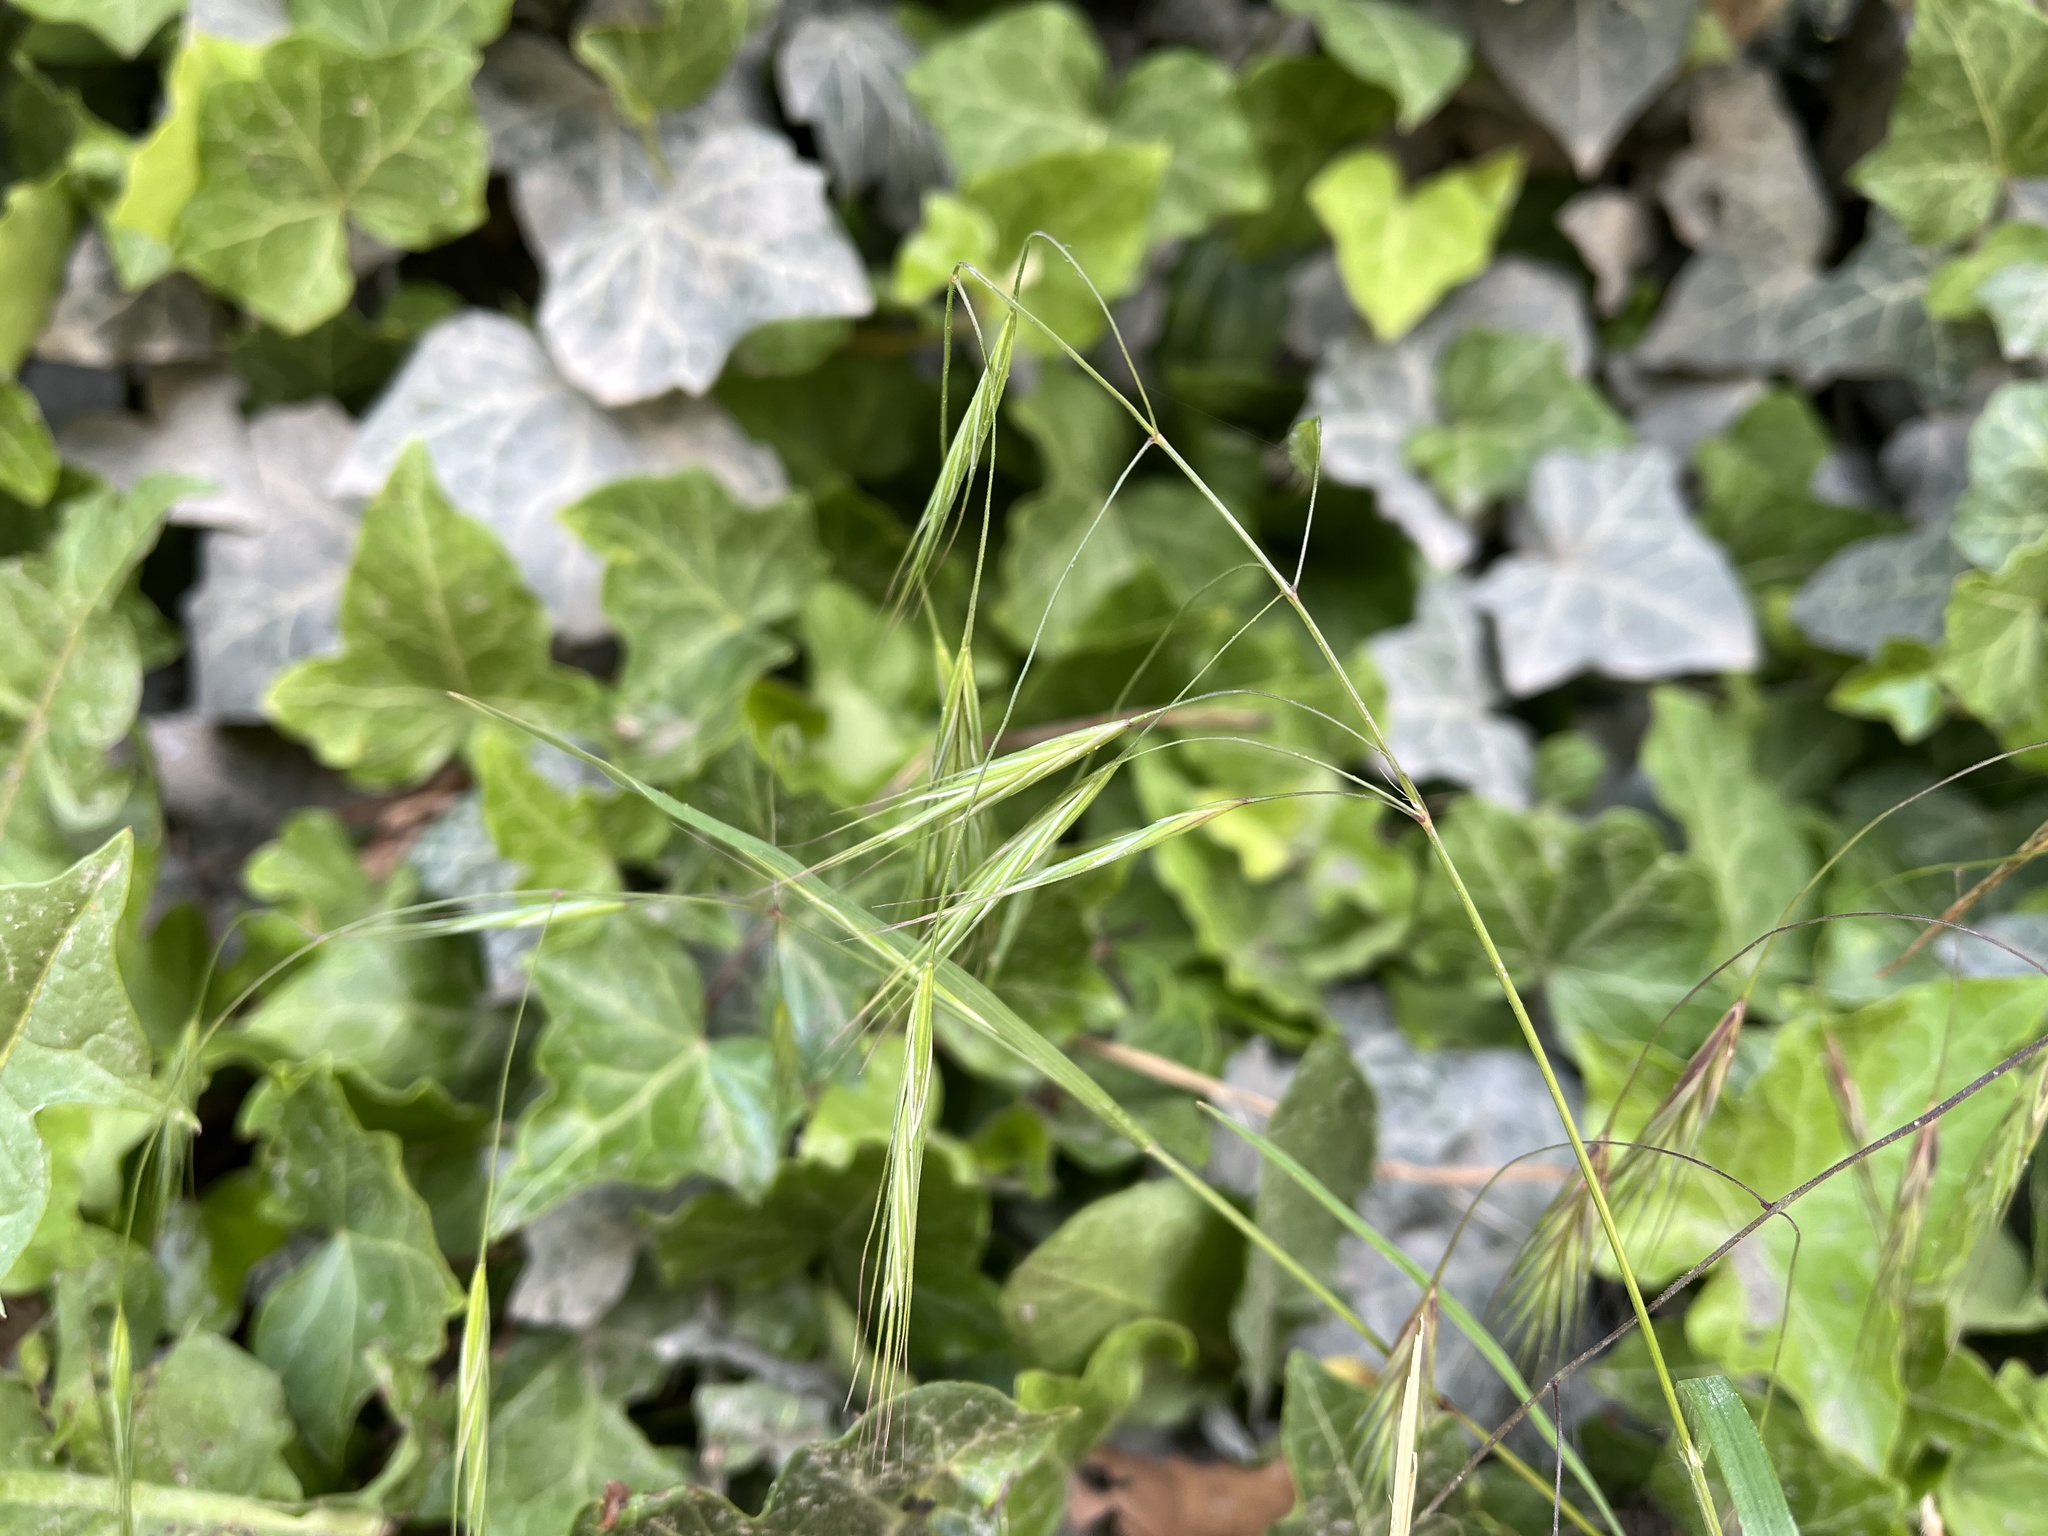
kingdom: Plantae
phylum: Tracheophyta
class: Liliopsida
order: Poales
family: Poaceae
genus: Bromus
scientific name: Bromus sterilis
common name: Poverty brome
